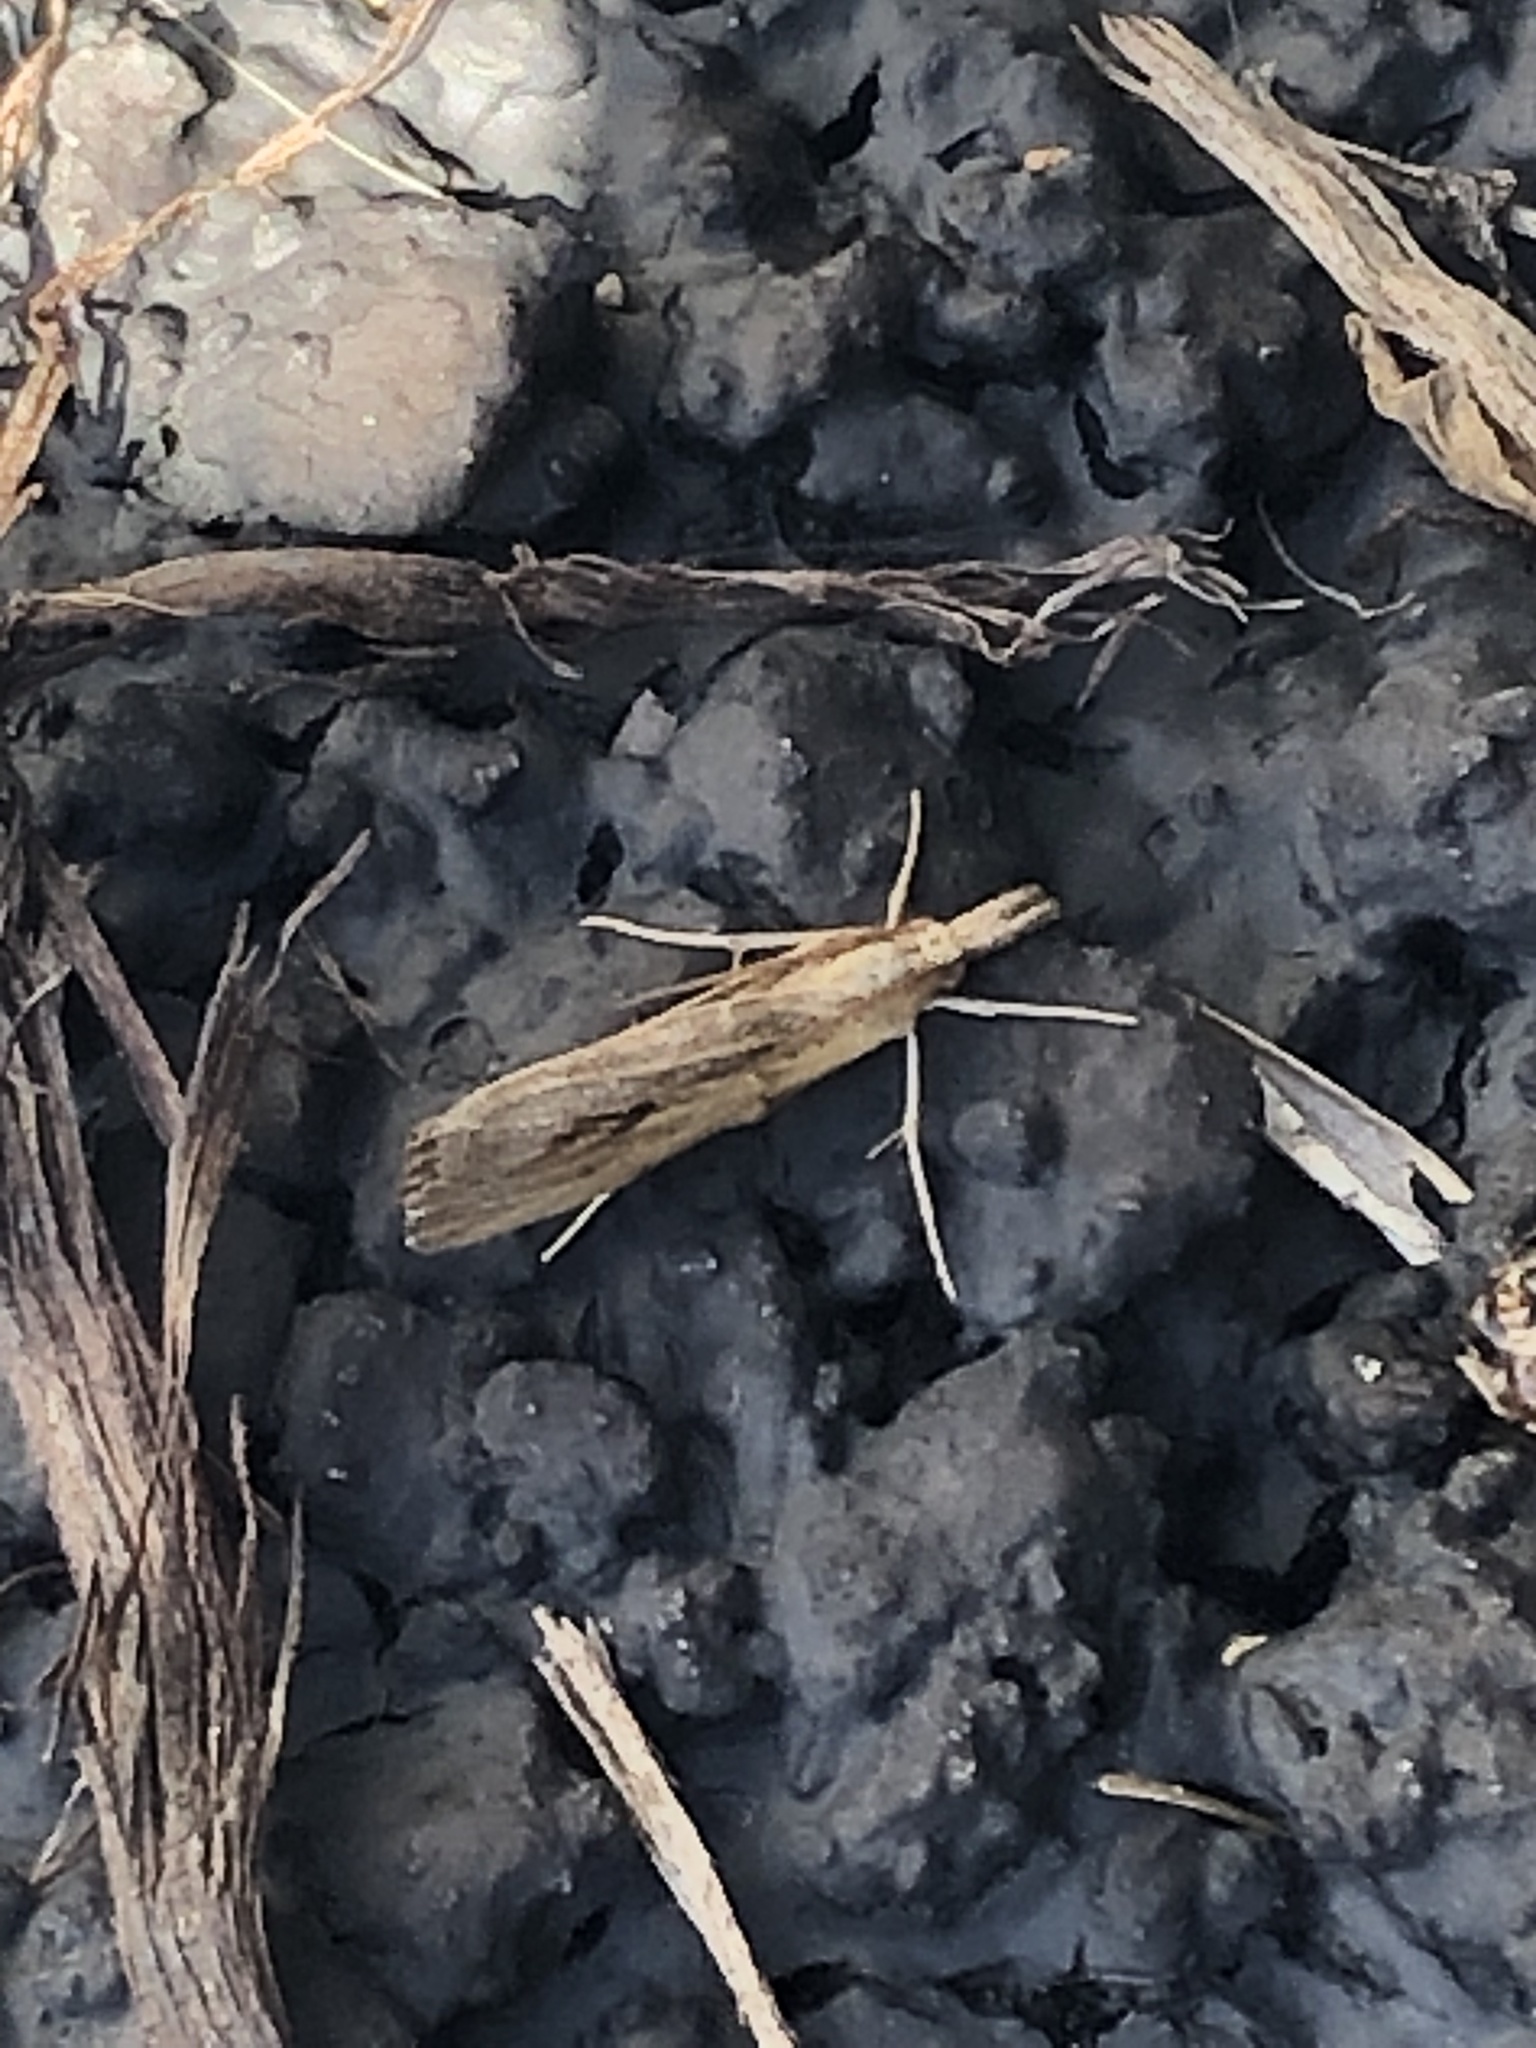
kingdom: Animalia
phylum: Arthropoda
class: Insecta
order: Lepidoptera
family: Crambidae
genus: Pediasia
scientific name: Pediasia trisecta
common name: Sod webworm moth
